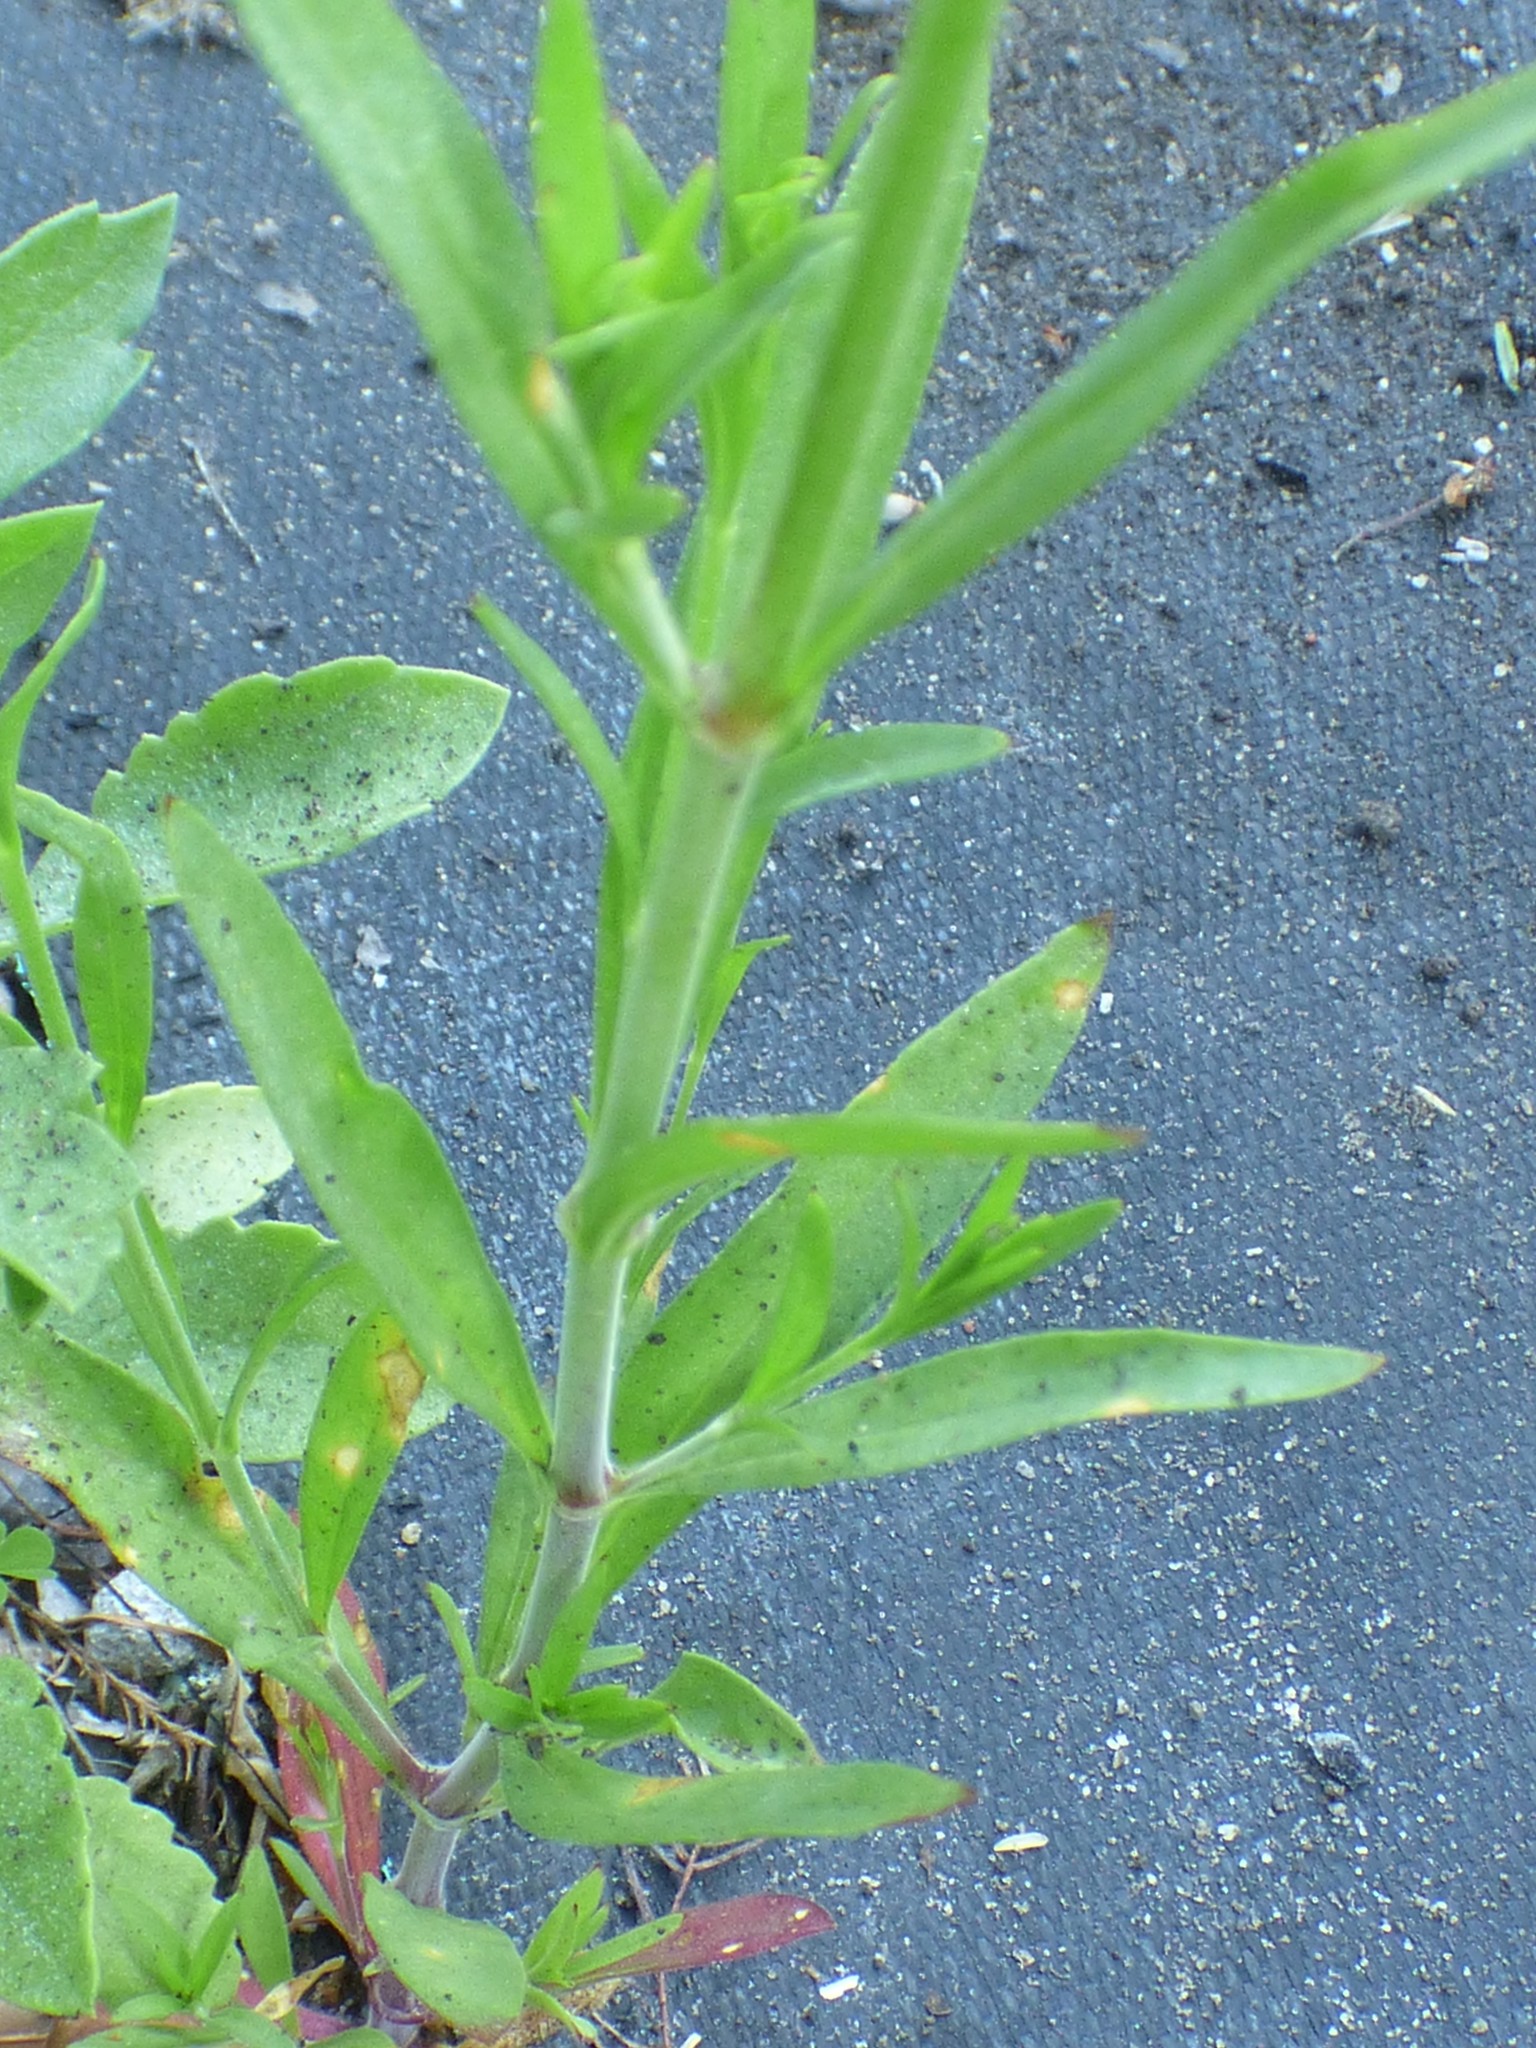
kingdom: Plantae
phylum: Tracheophyta
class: Magnoliopsida
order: Caryophyllales
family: Caryophyllaceae
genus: Silene
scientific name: Silene antirrhina
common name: Sleepy catchfly
